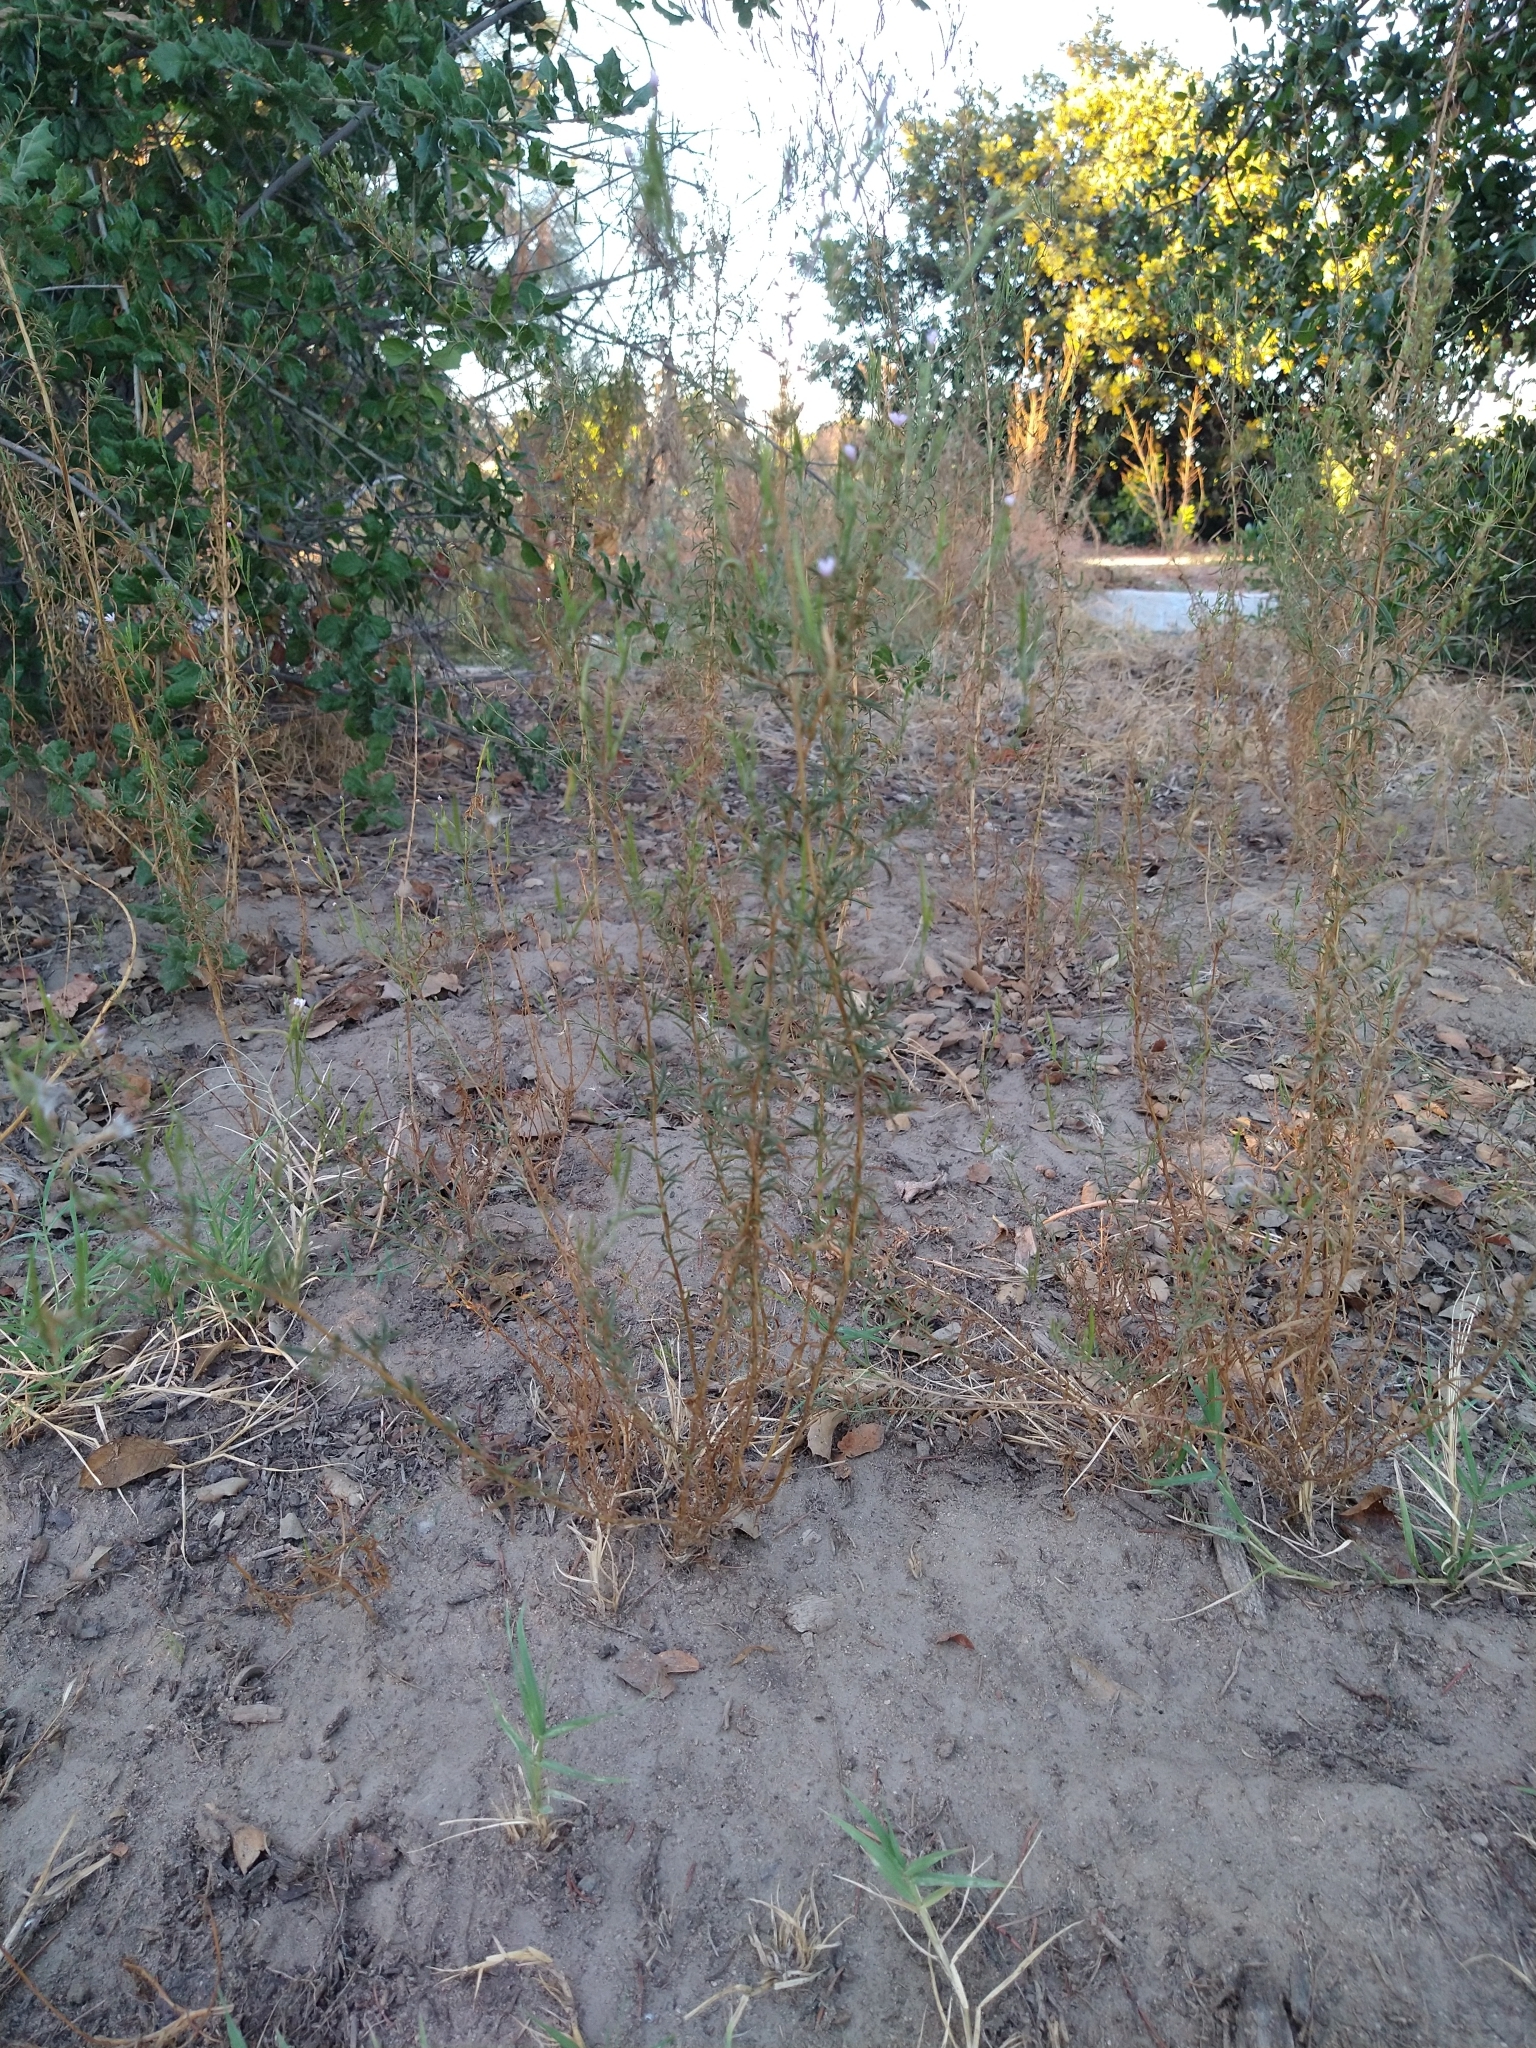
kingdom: Plantae
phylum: Tracheophyta
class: Magnoliopsida
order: Myrtales
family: Onagraceae
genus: Epilobium
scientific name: Epilobium brachycarpum
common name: Annual willowherb
